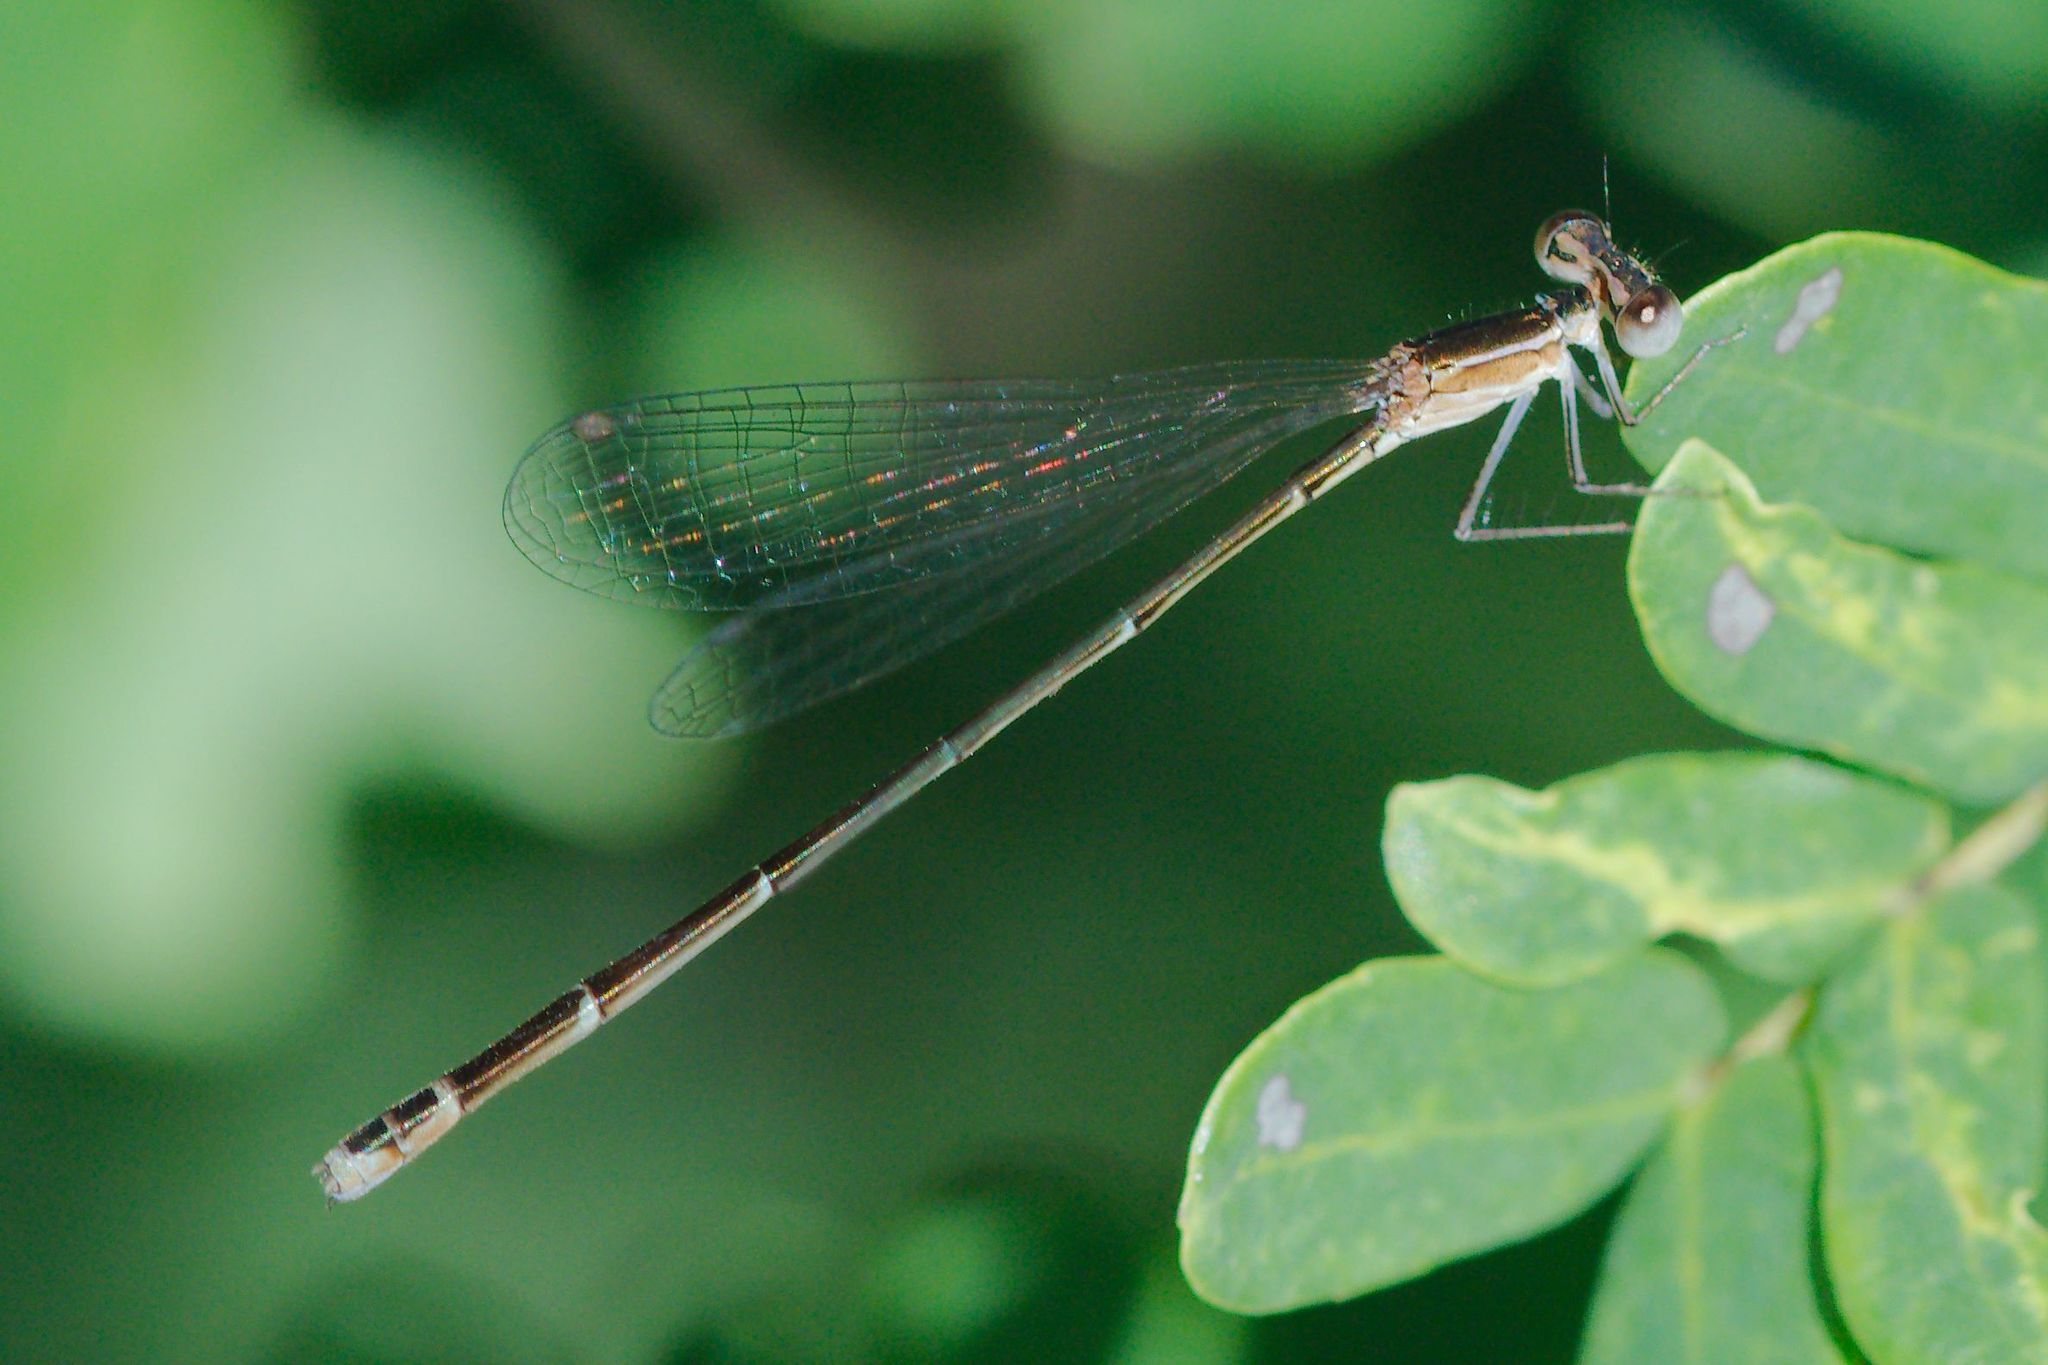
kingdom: Animalia
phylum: Arthropoda
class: Insecta
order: Odonata
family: Coenagrionidae
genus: Nehalennia
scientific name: Nehalennia pallidula
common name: Everglades sprite
